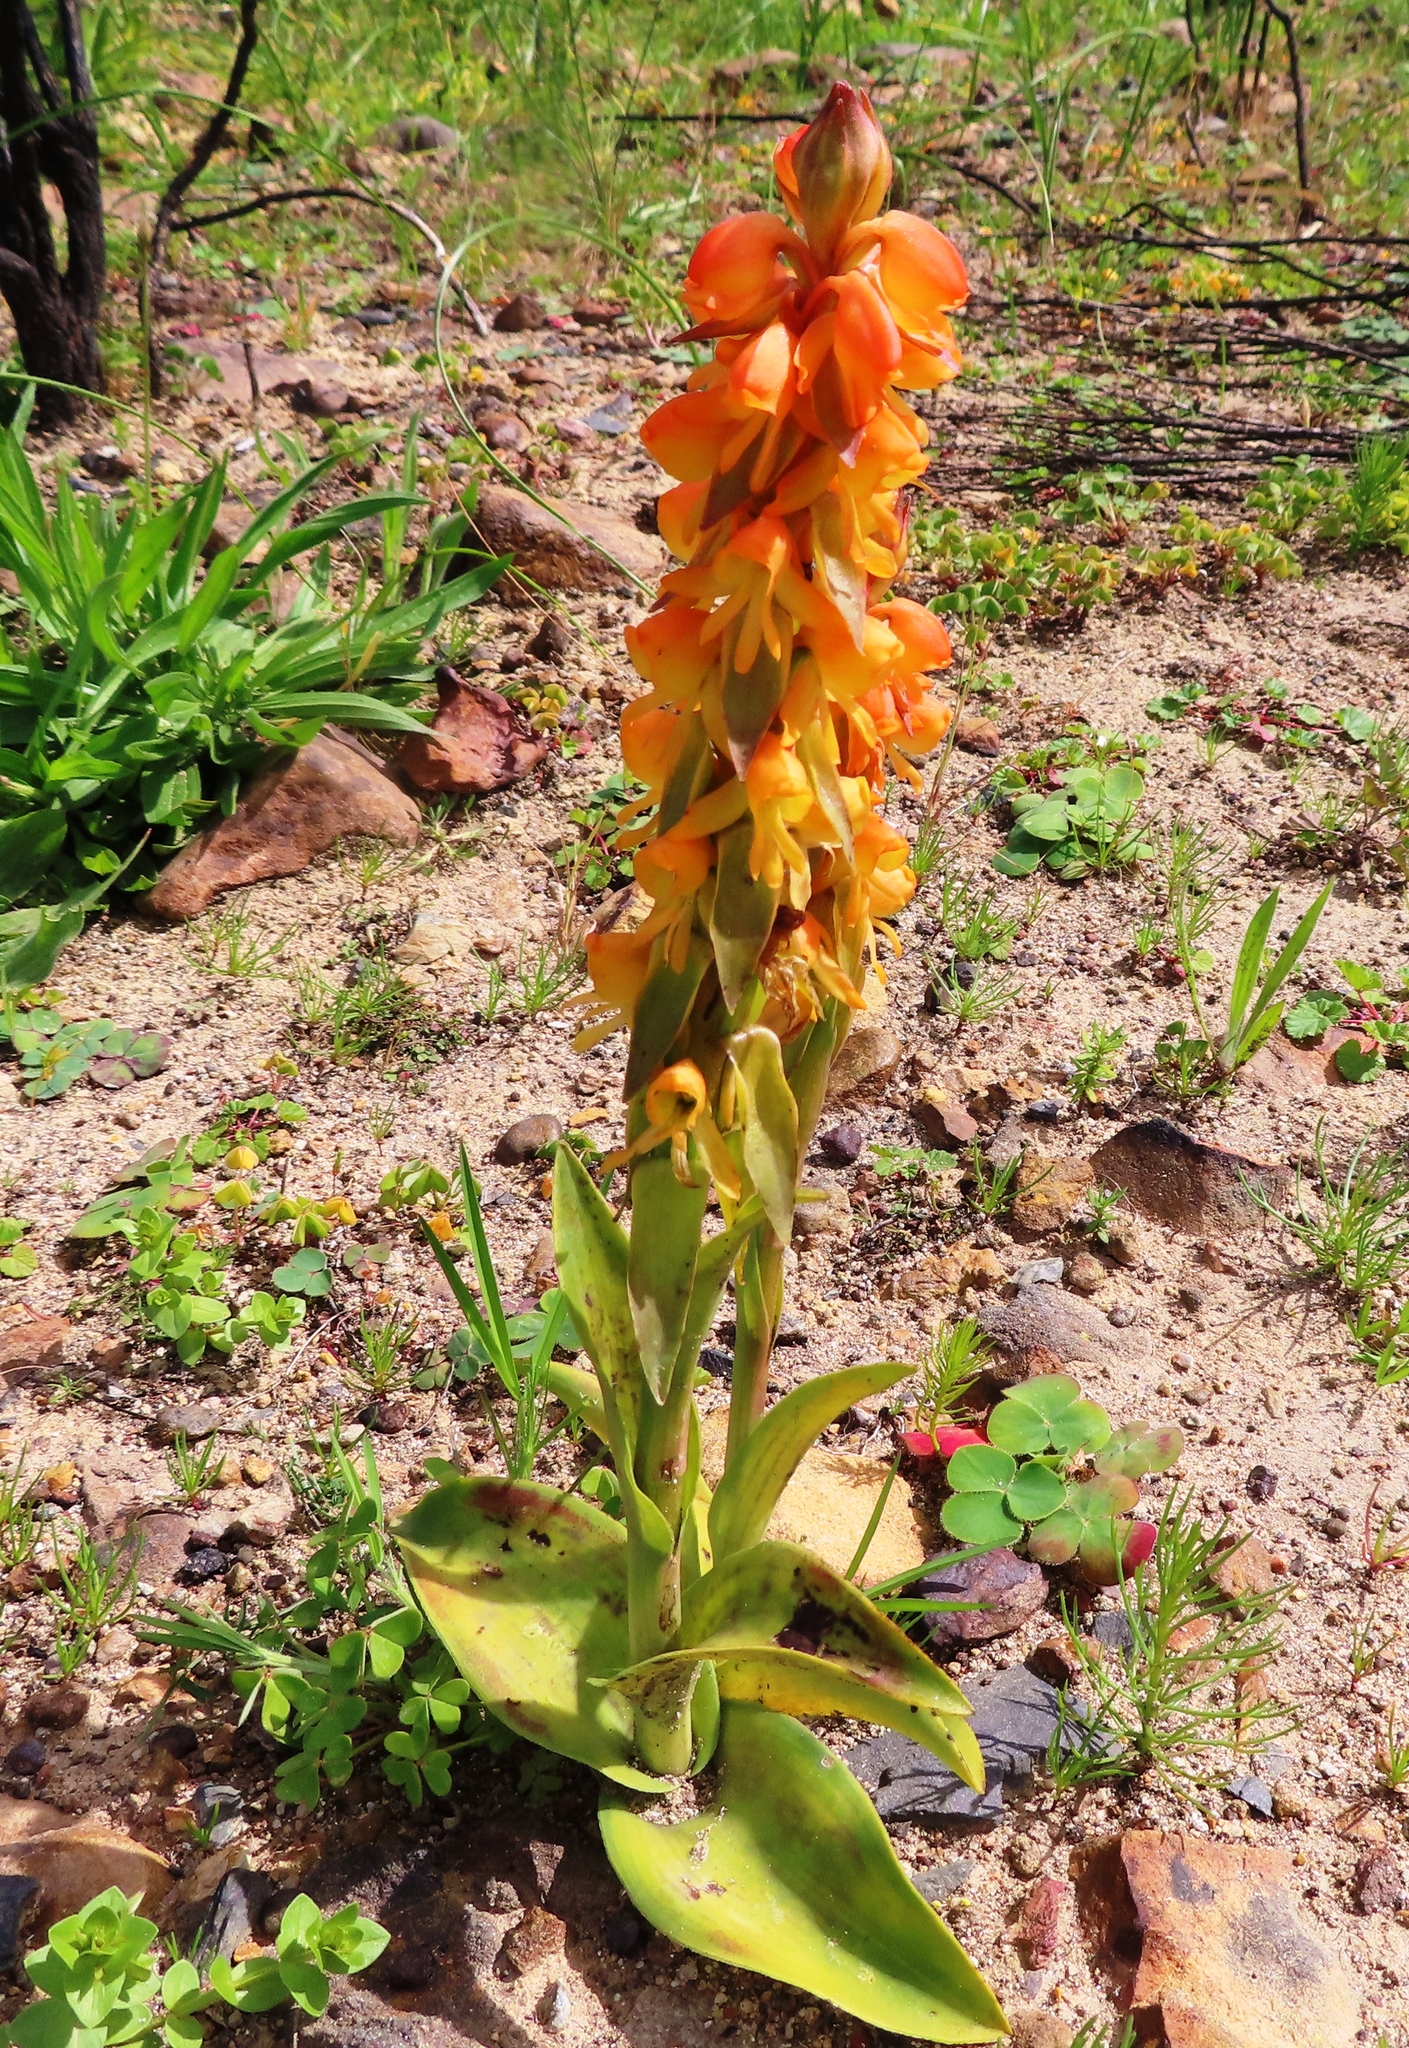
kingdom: Plantae
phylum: Tracheophyta
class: Liliopsida
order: Asparagales
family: Orchidaceae
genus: Satyrium
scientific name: Satyrium coriifolium
